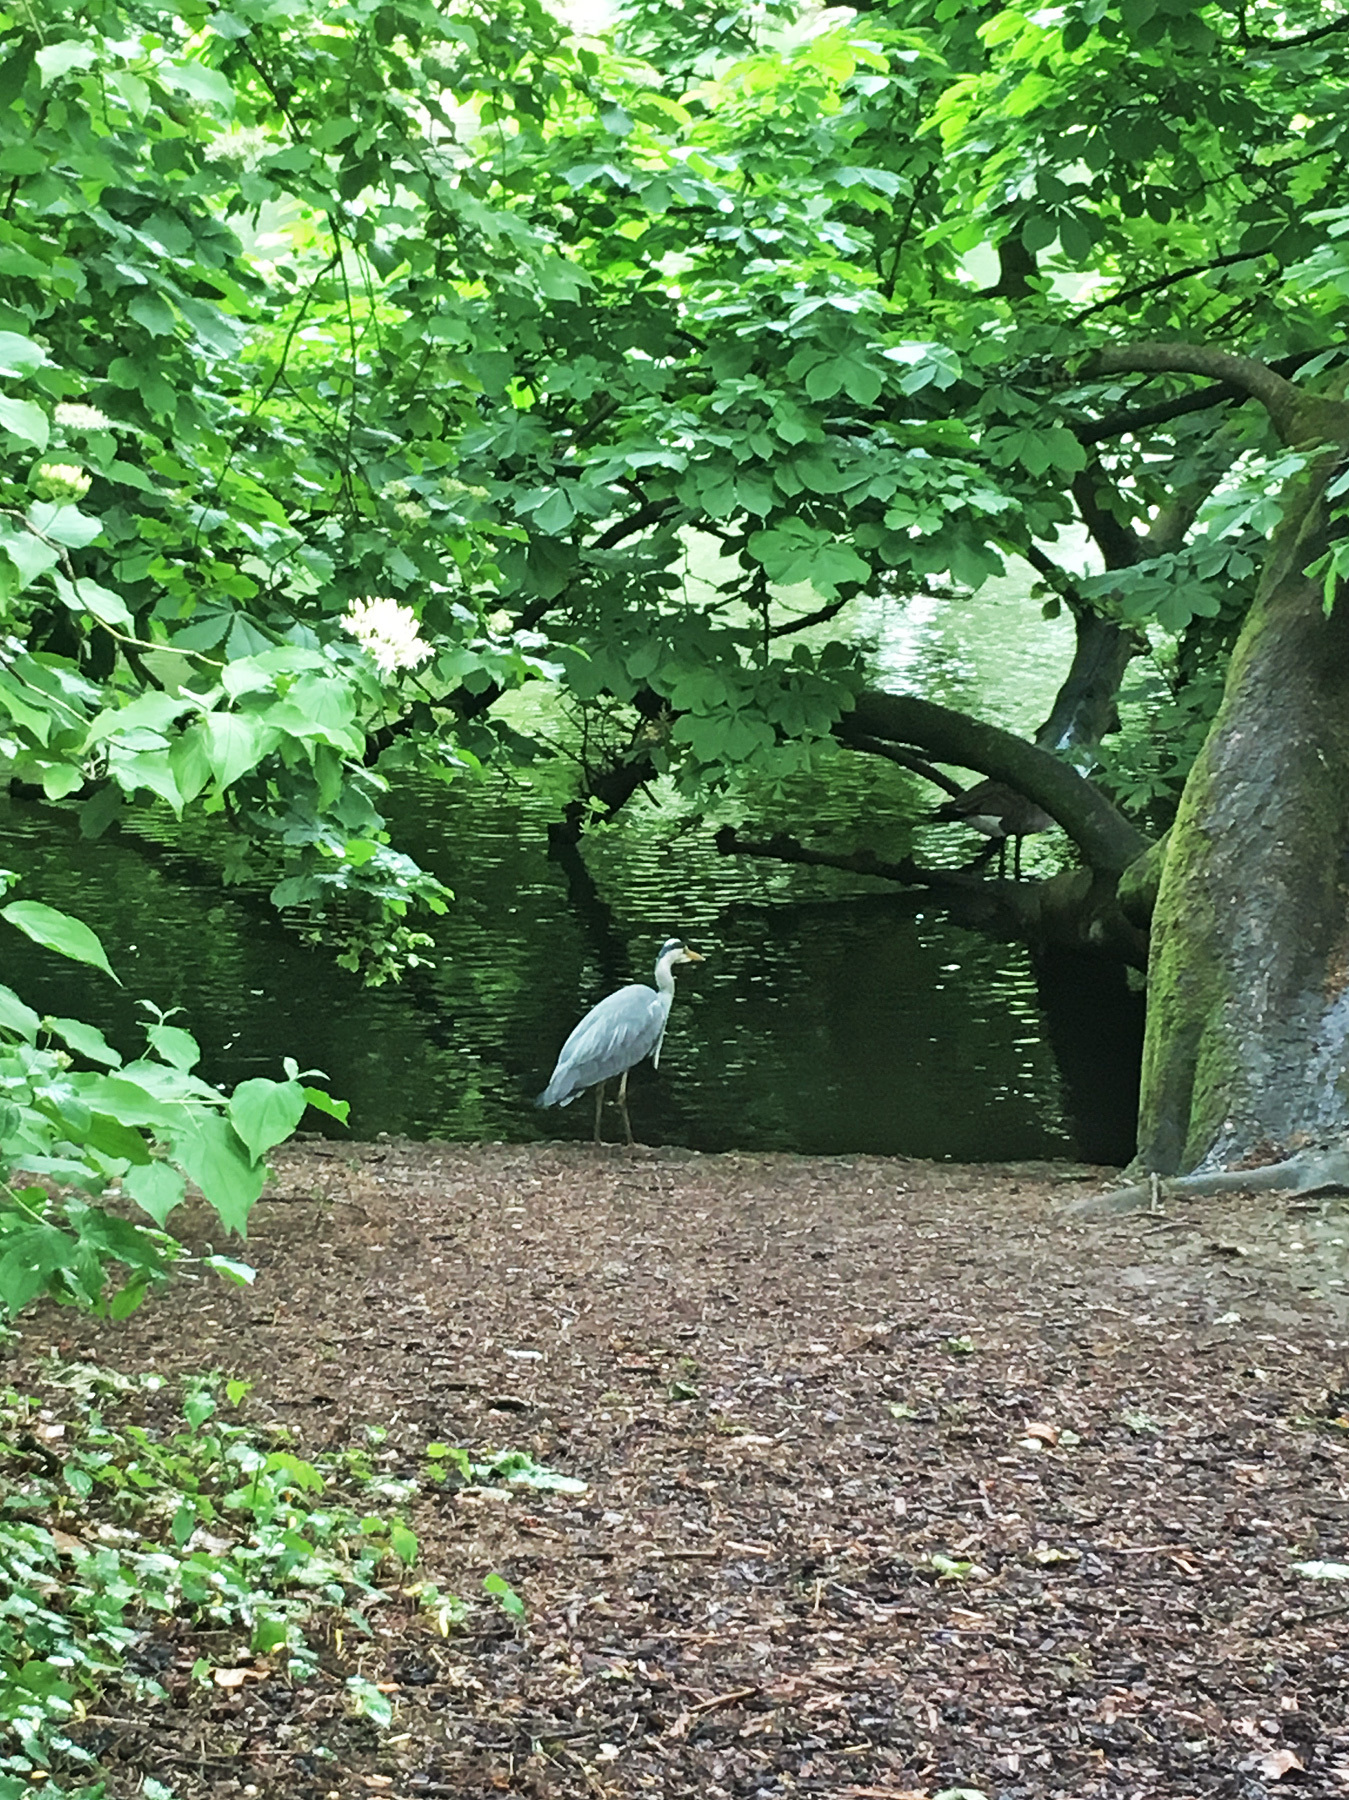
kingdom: Animalia
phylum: Chordata
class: Aves
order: Pelecaniformes
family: Ardeidae
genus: Ardea
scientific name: Ardea cinerea
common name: Grey heron
